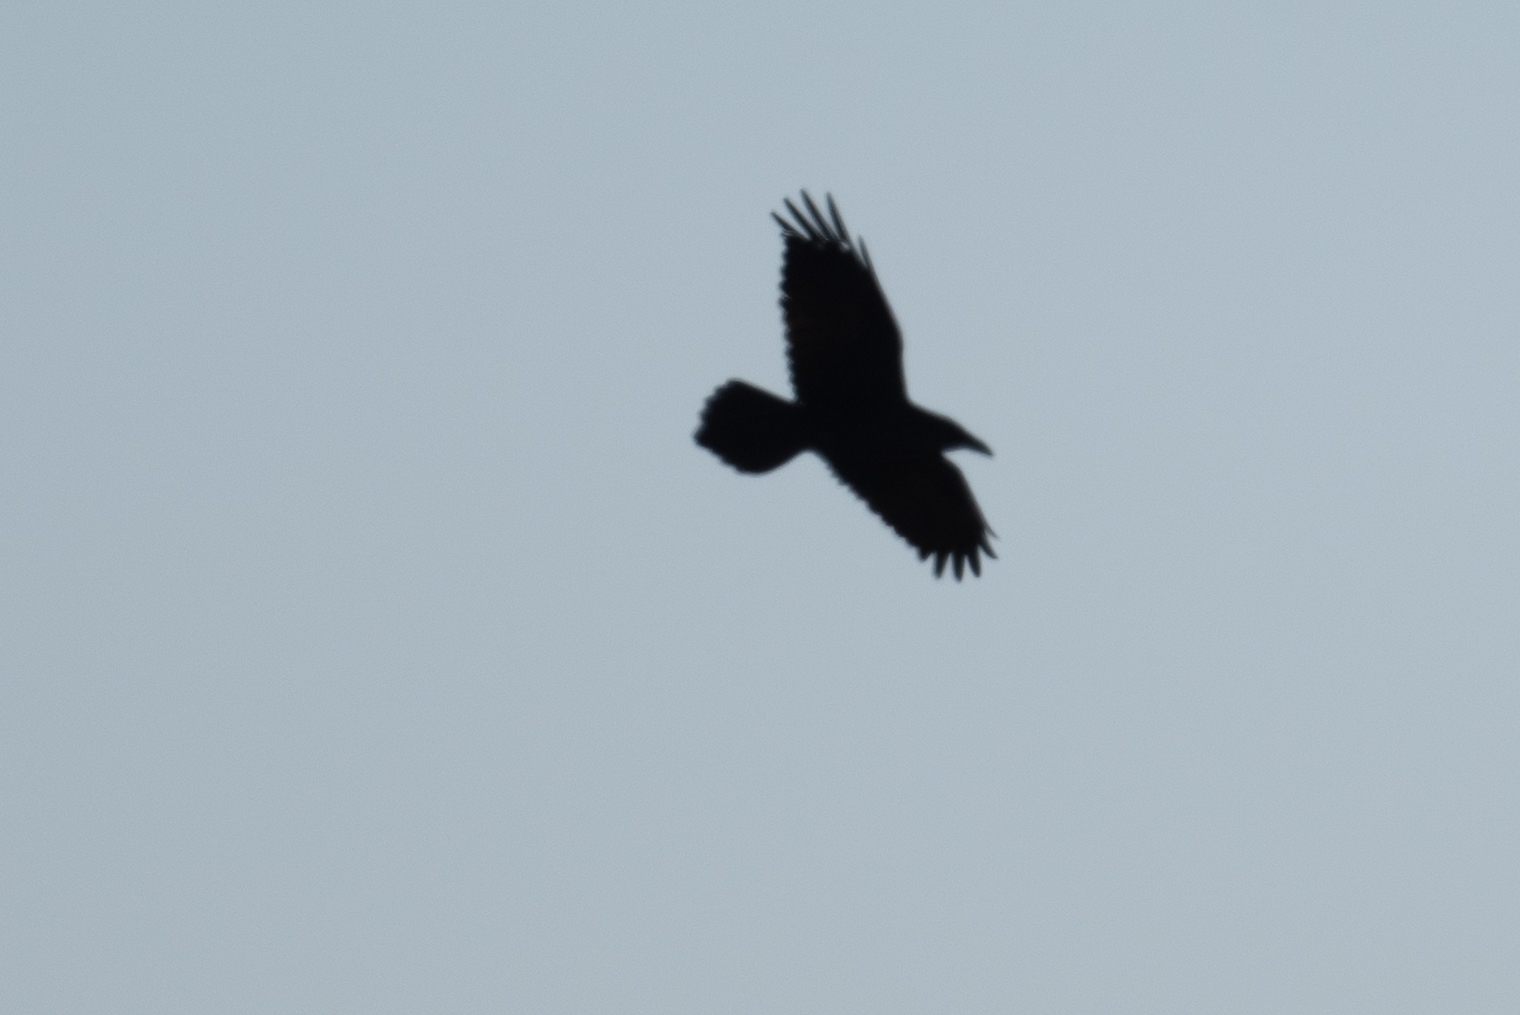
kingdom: Animalia
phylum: Chordata
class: Aves
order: Passeriformes
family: Corvidae
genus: Corvus
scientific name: Corvus corax
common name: Common raven
